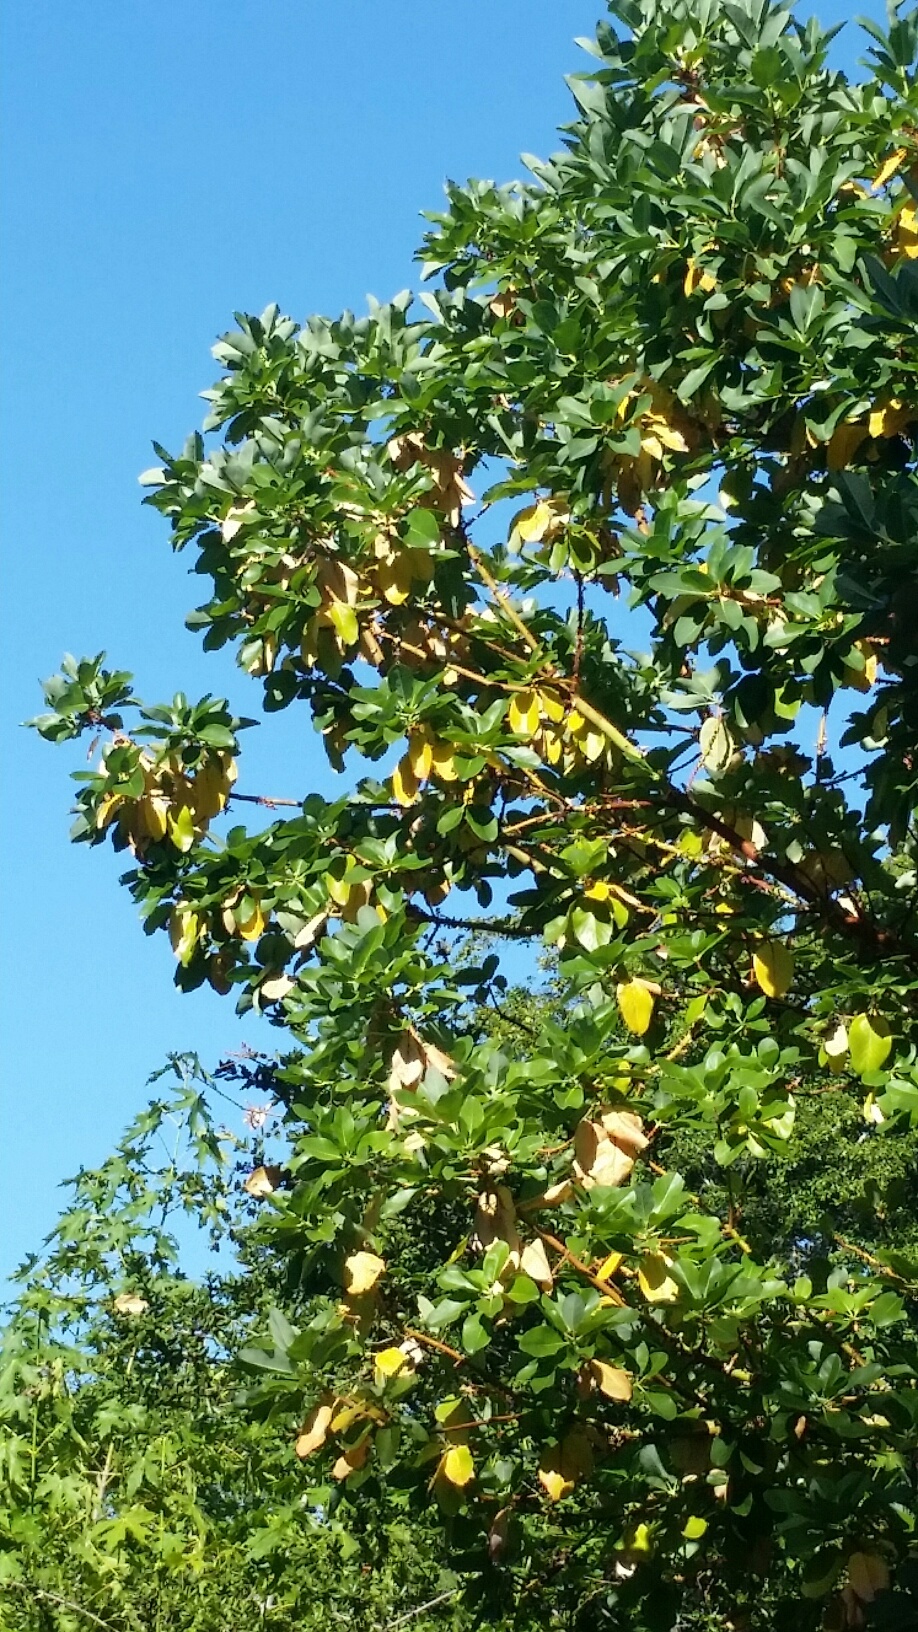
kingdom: Plantae
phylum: Tracheophyta
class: Magnoliopsida
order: Ericales
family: Ericaceae
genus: Arbutus
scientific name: Arbutus menziesii
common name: Pacific madrone
